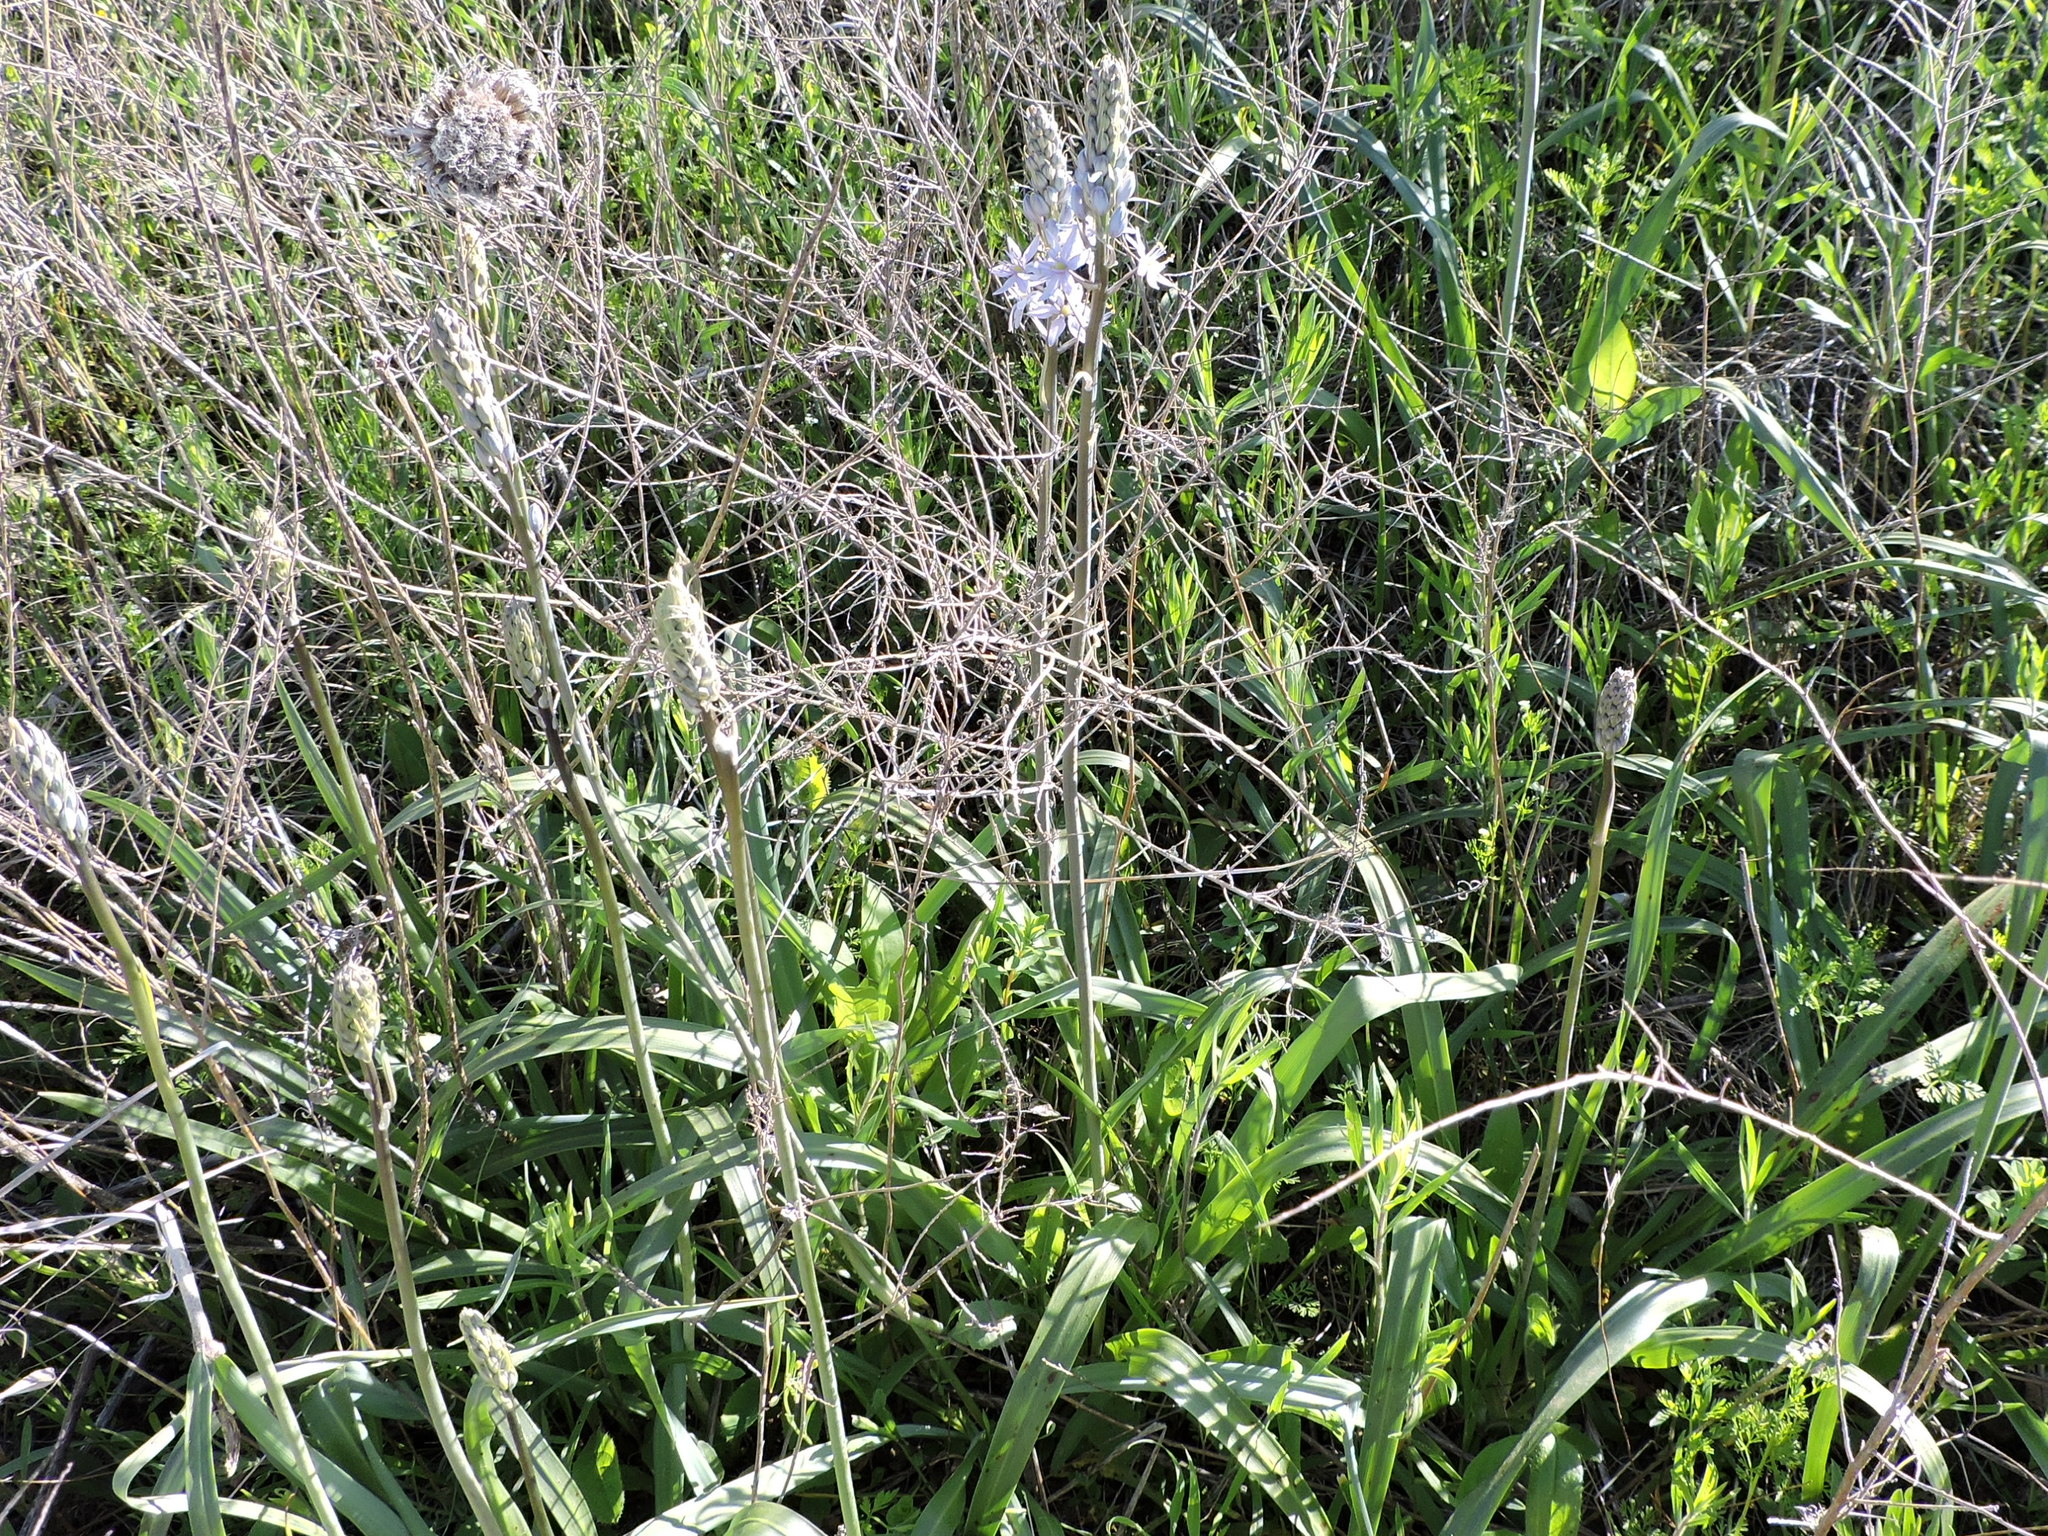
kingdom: Plantae
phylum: Tracheophyta
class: Liliopsida
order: Asparagales
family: Asparagaceae
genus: Camassia
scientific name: Camassia scilloides
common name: Wild hyacinth
